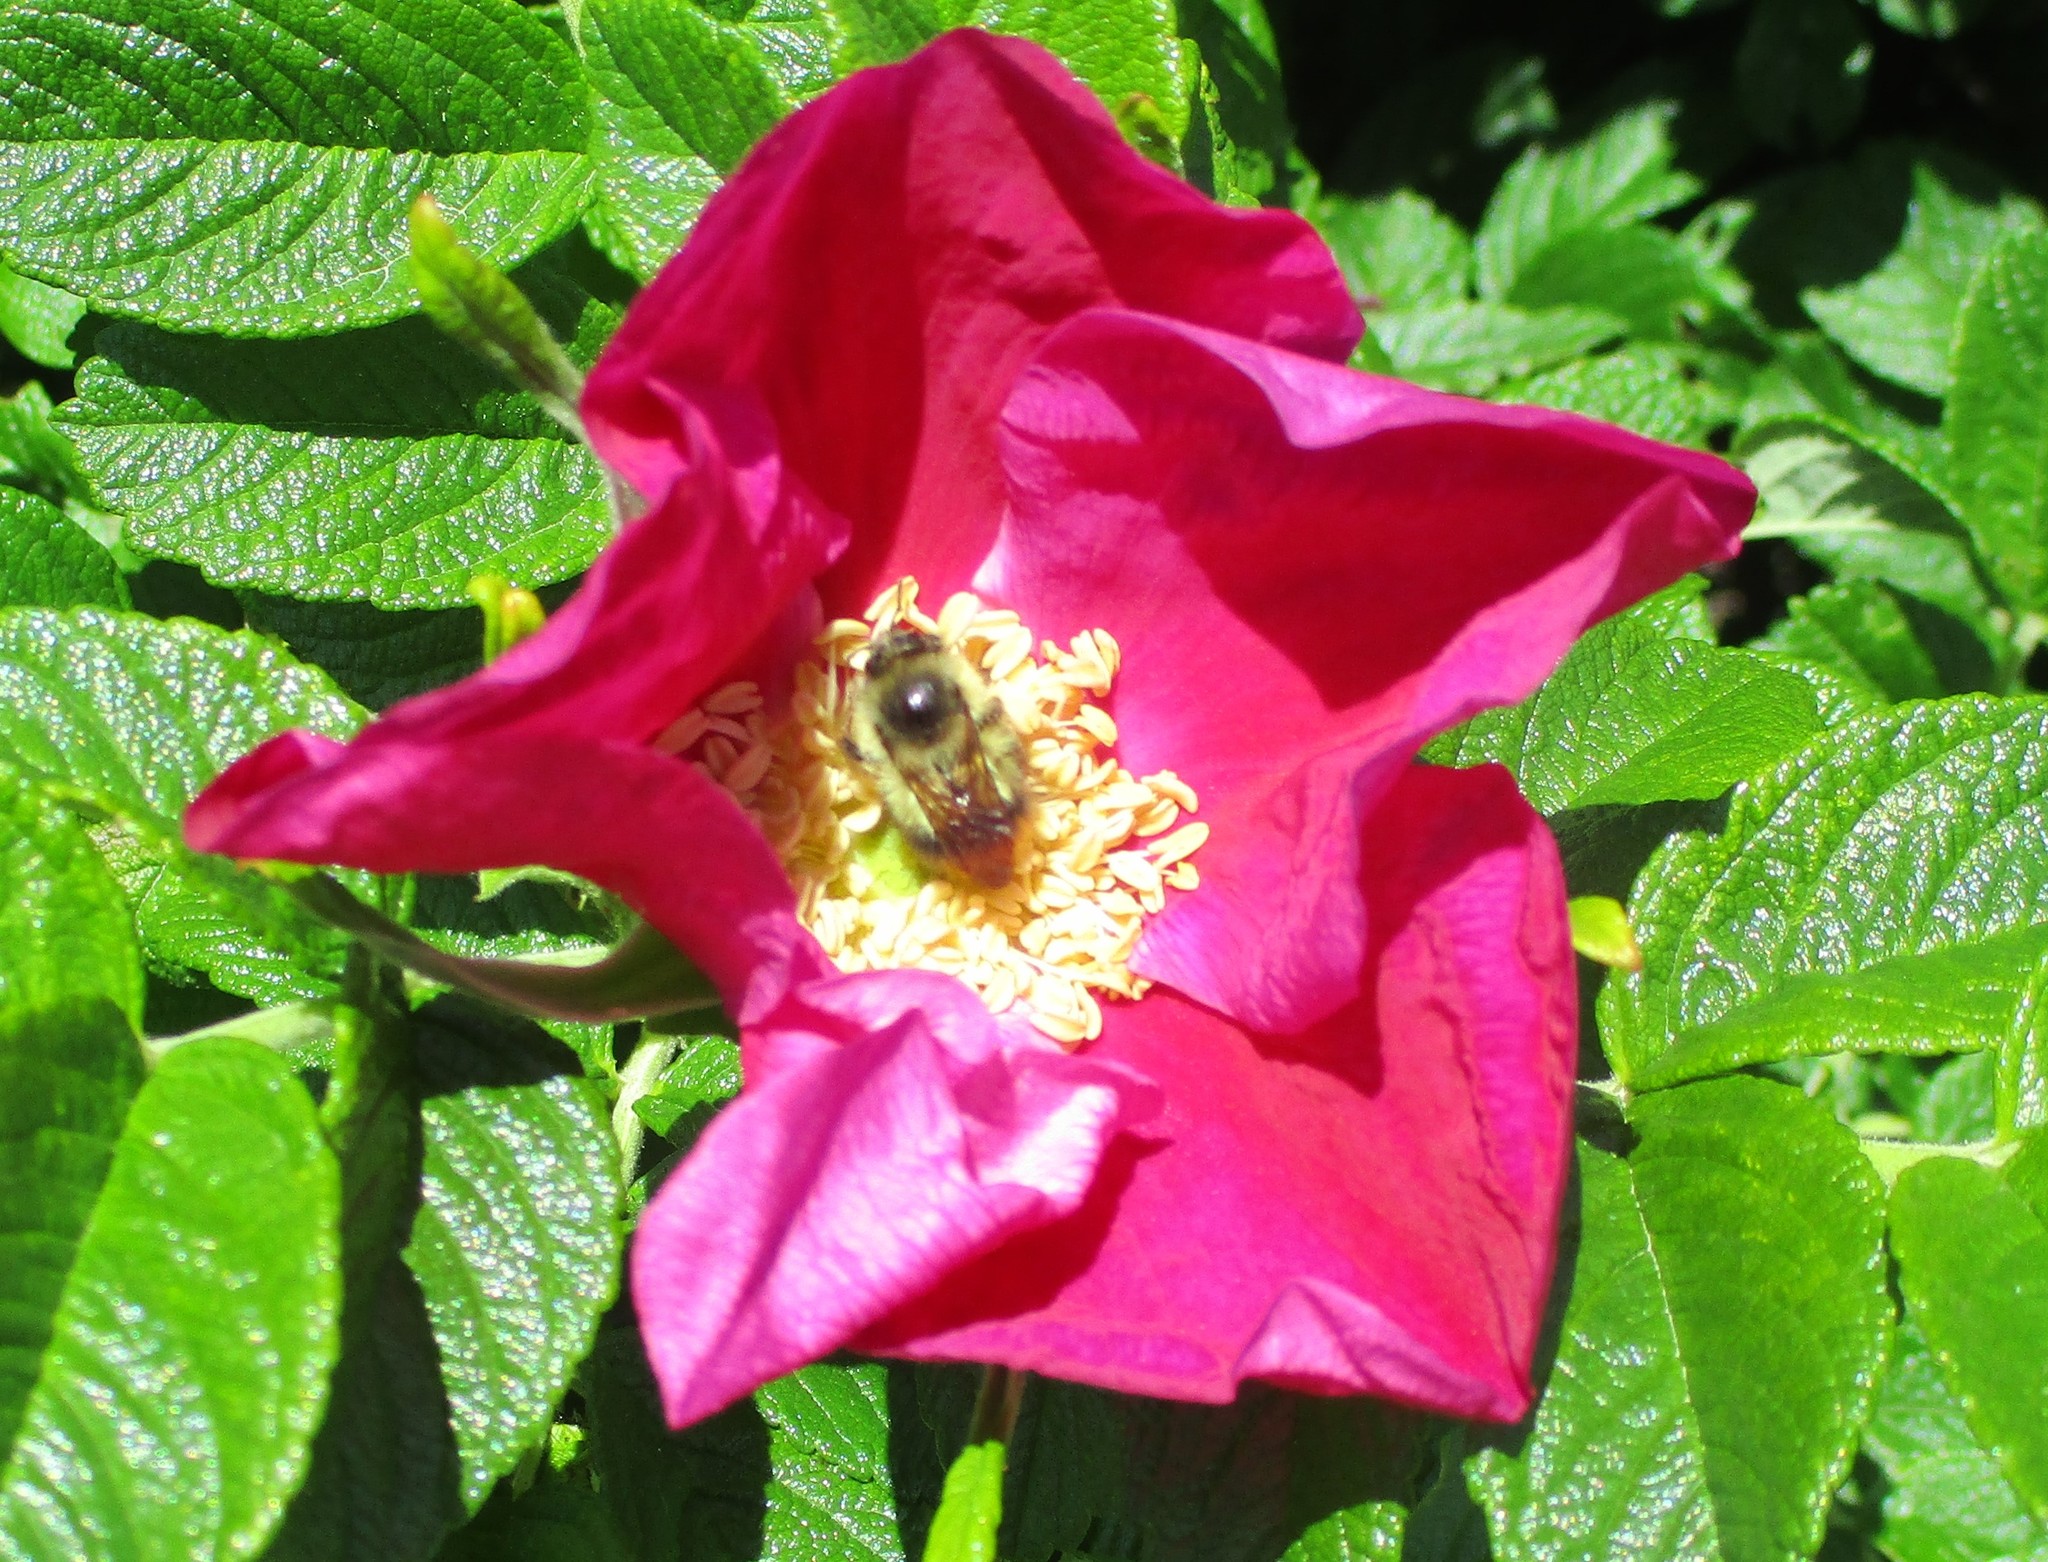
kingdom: Animalia
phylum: Arthropoda
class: Insecta
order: Hymenoptera
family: Apidae
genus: Bombus
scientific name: Bombus mixtus
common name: Fuzzy-horned bumble bee
